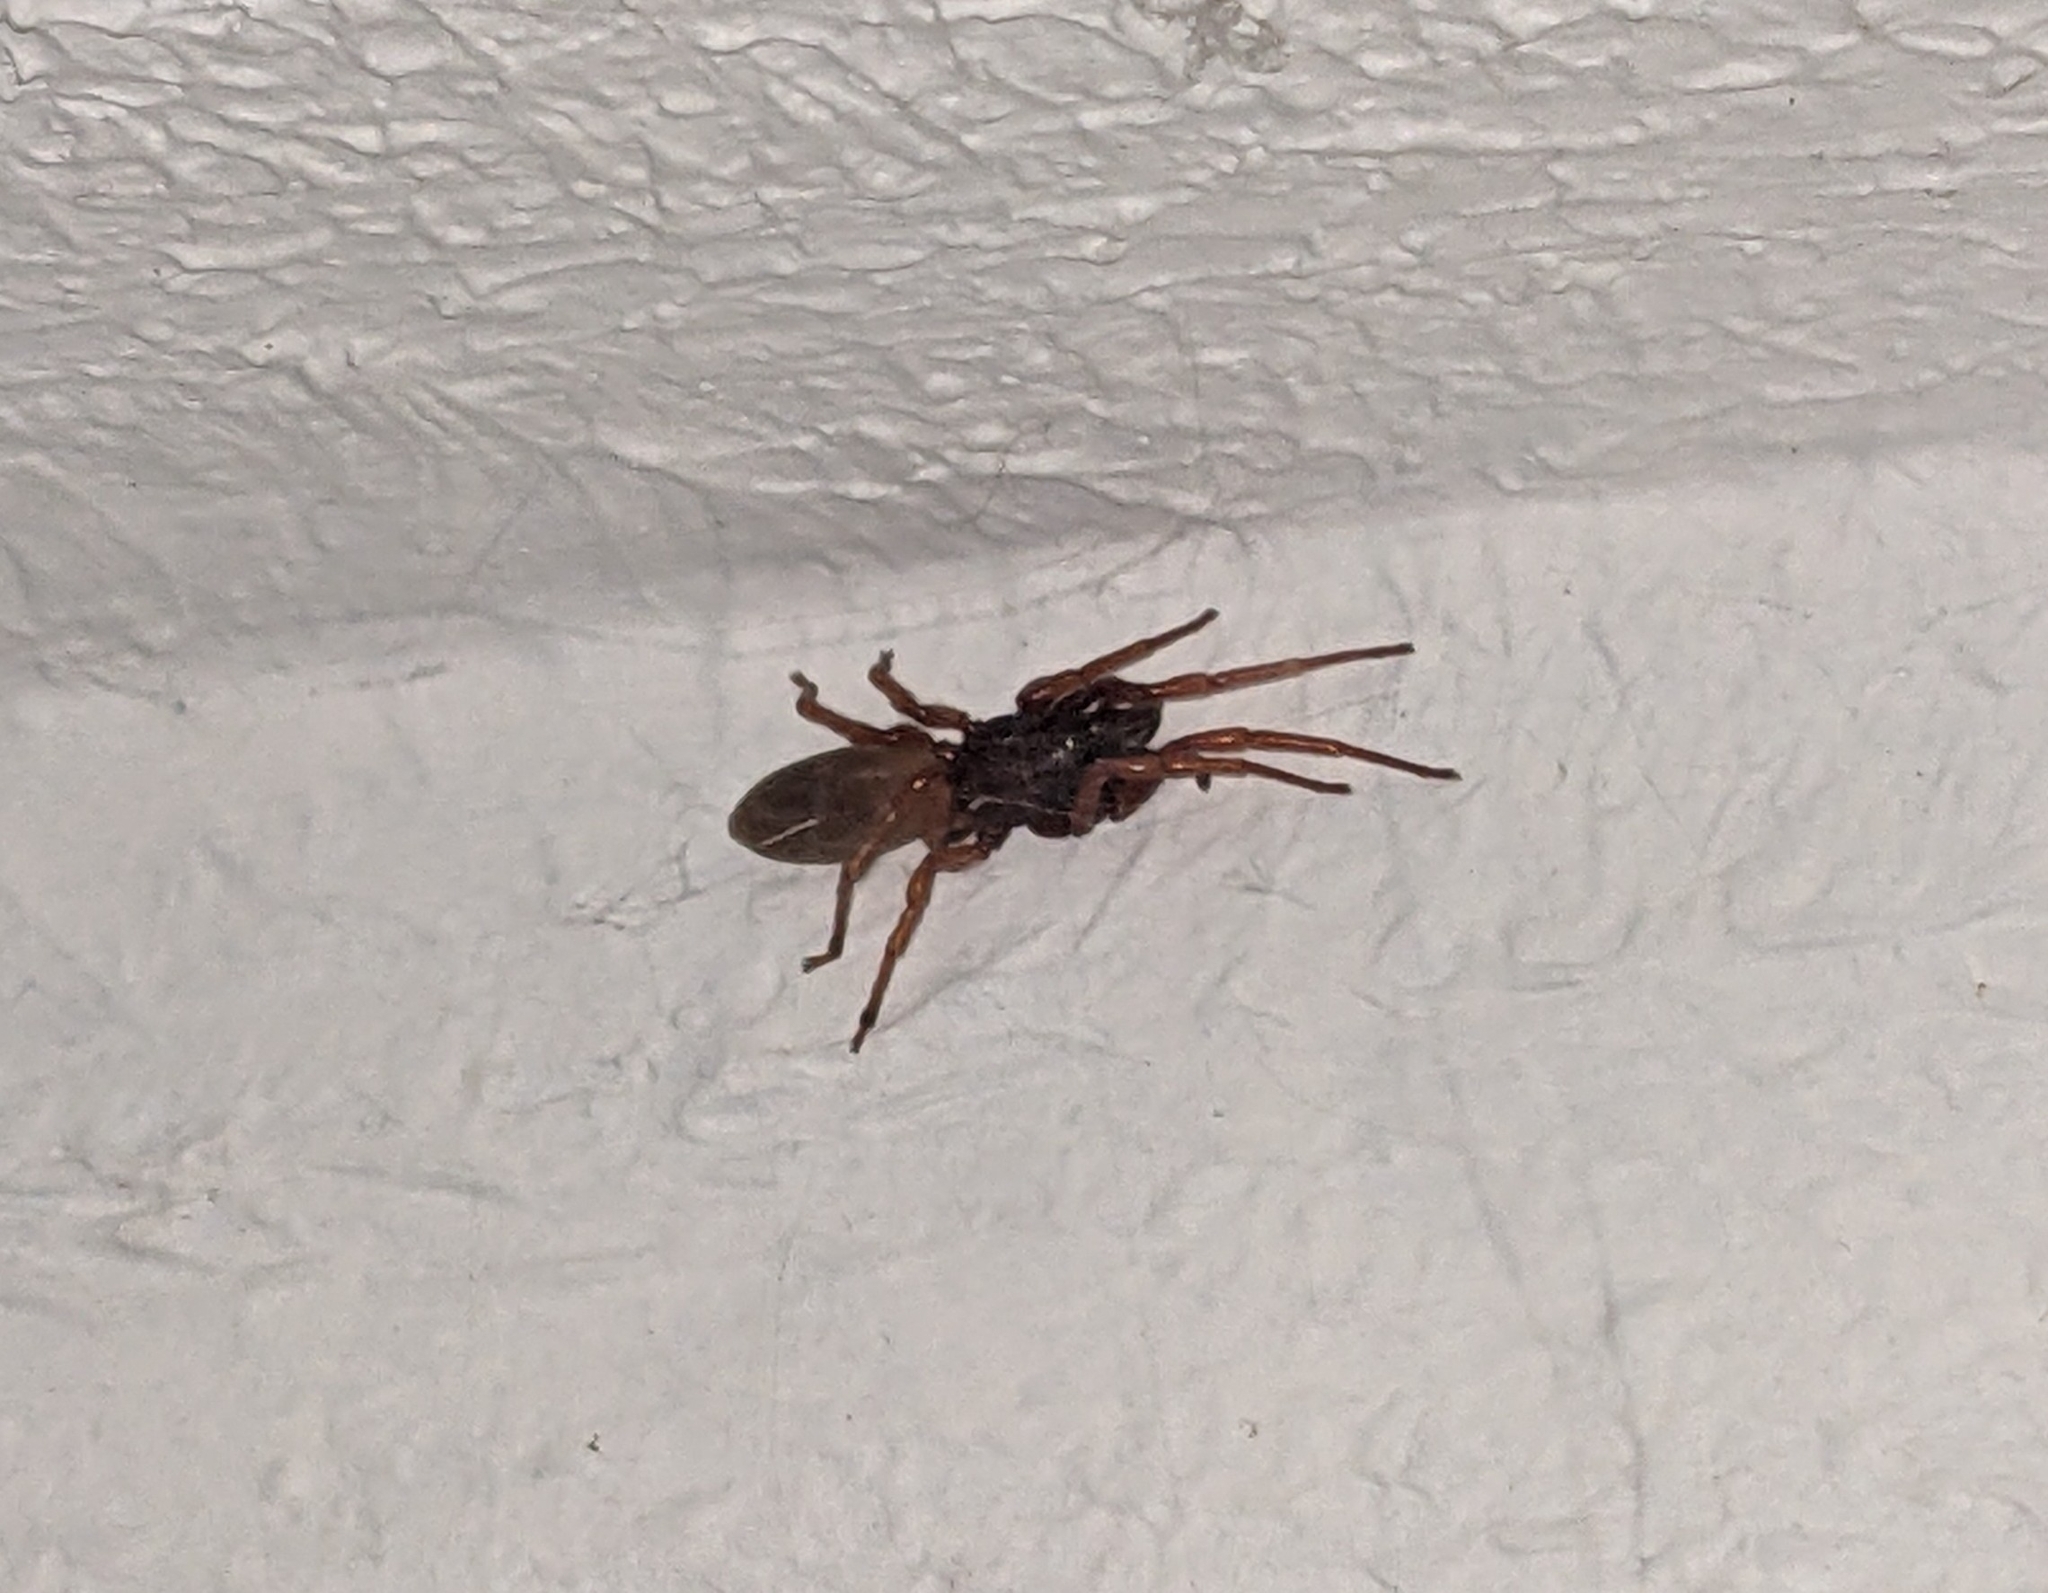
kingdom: Animalia
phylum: Arthropoda
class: Arachnida
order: Araneae
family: Dysderidae
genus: Dysdera
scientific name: Dysdera crocata
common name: Woodlouse spider
